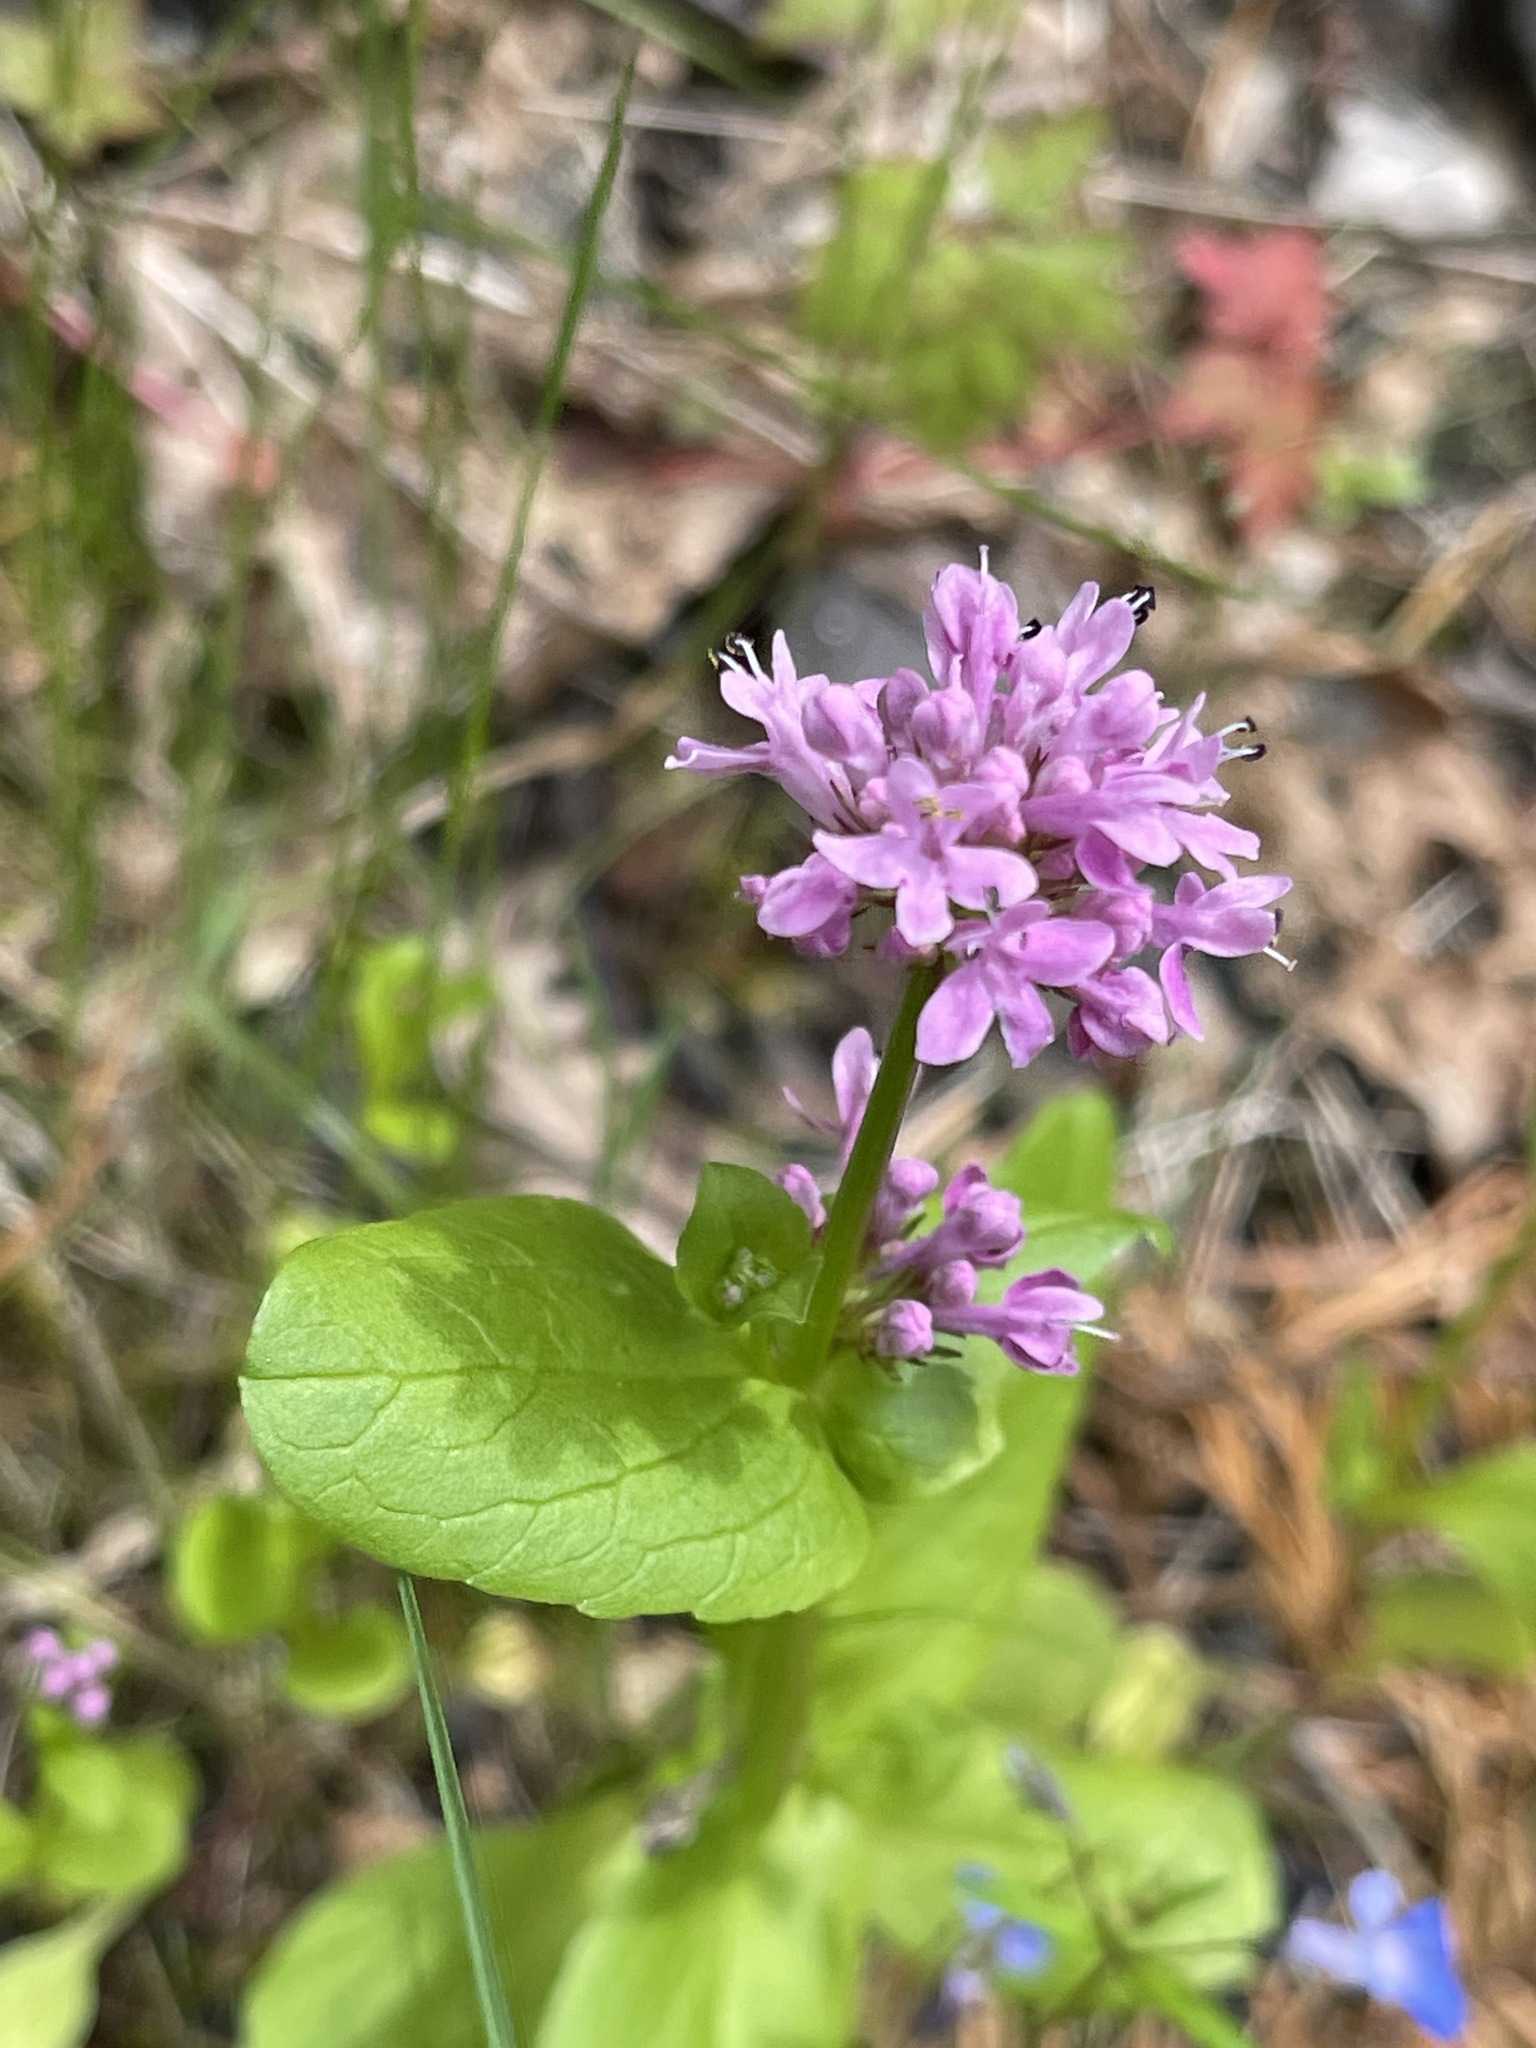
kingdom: Plantae
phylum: Tracheophyta
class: Magnoliopsida
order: Dipsacales
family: Caprifoliaceae
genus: Plectritis
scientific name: Plectritis congesta
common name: Pink plectritis
